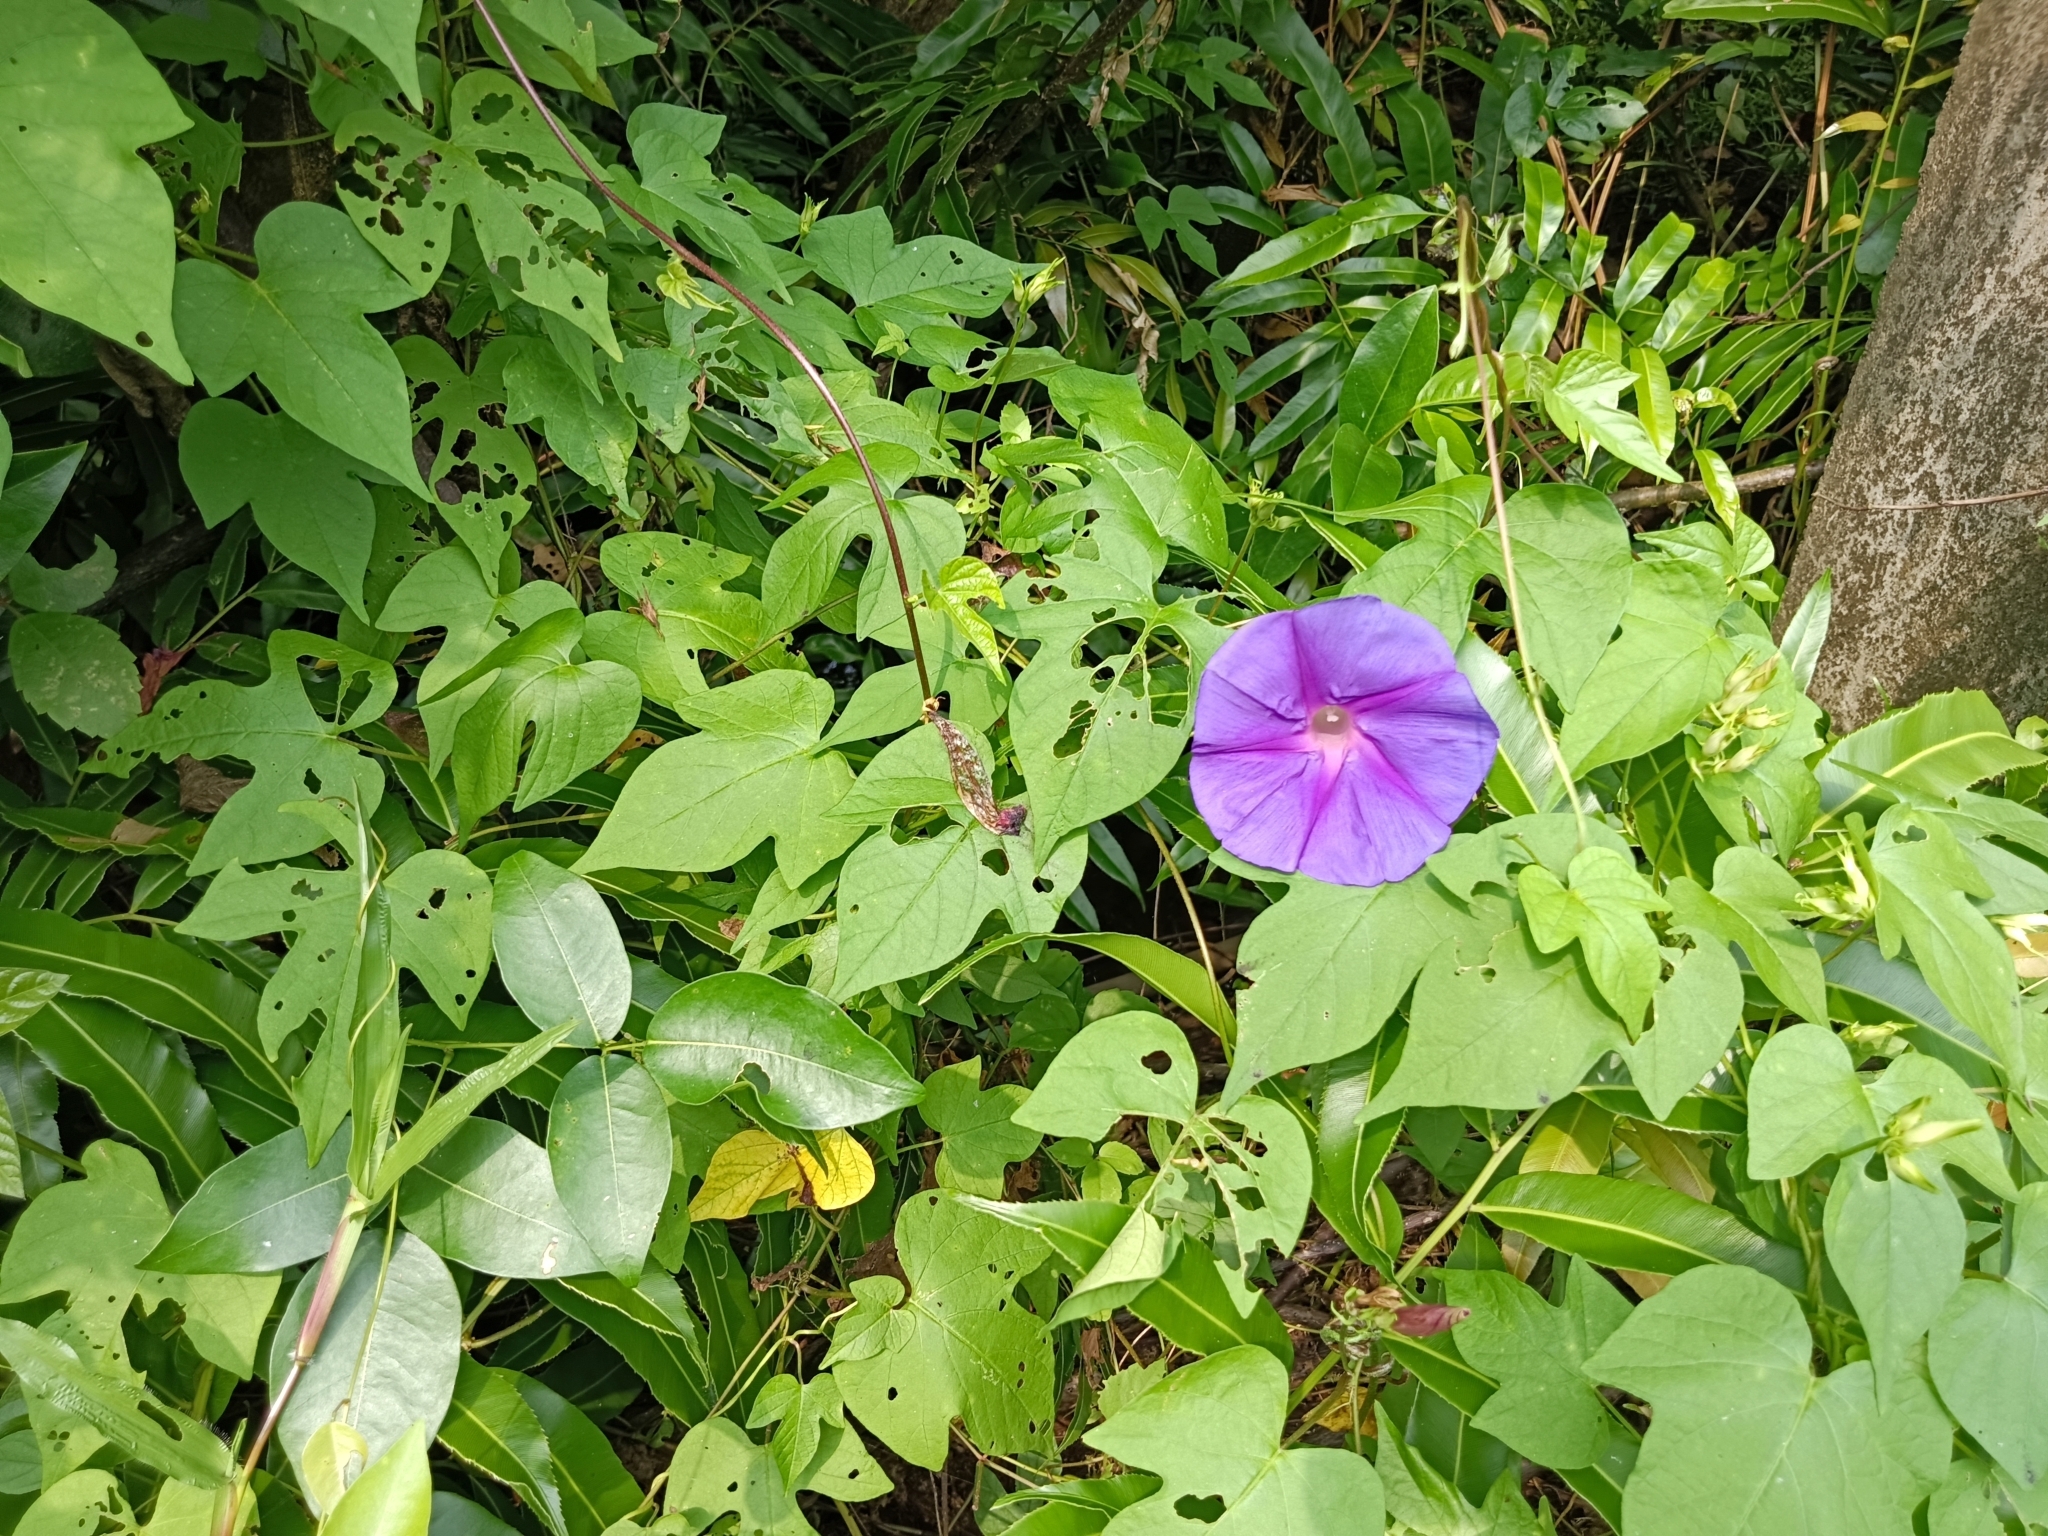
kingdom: Plantae
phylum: Tracheophyta
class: Magnoliopsida
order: Solanales
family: Convolvulaceae
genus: Ipomoea
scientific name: Ipomoea indica
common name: Blue dawnflower
